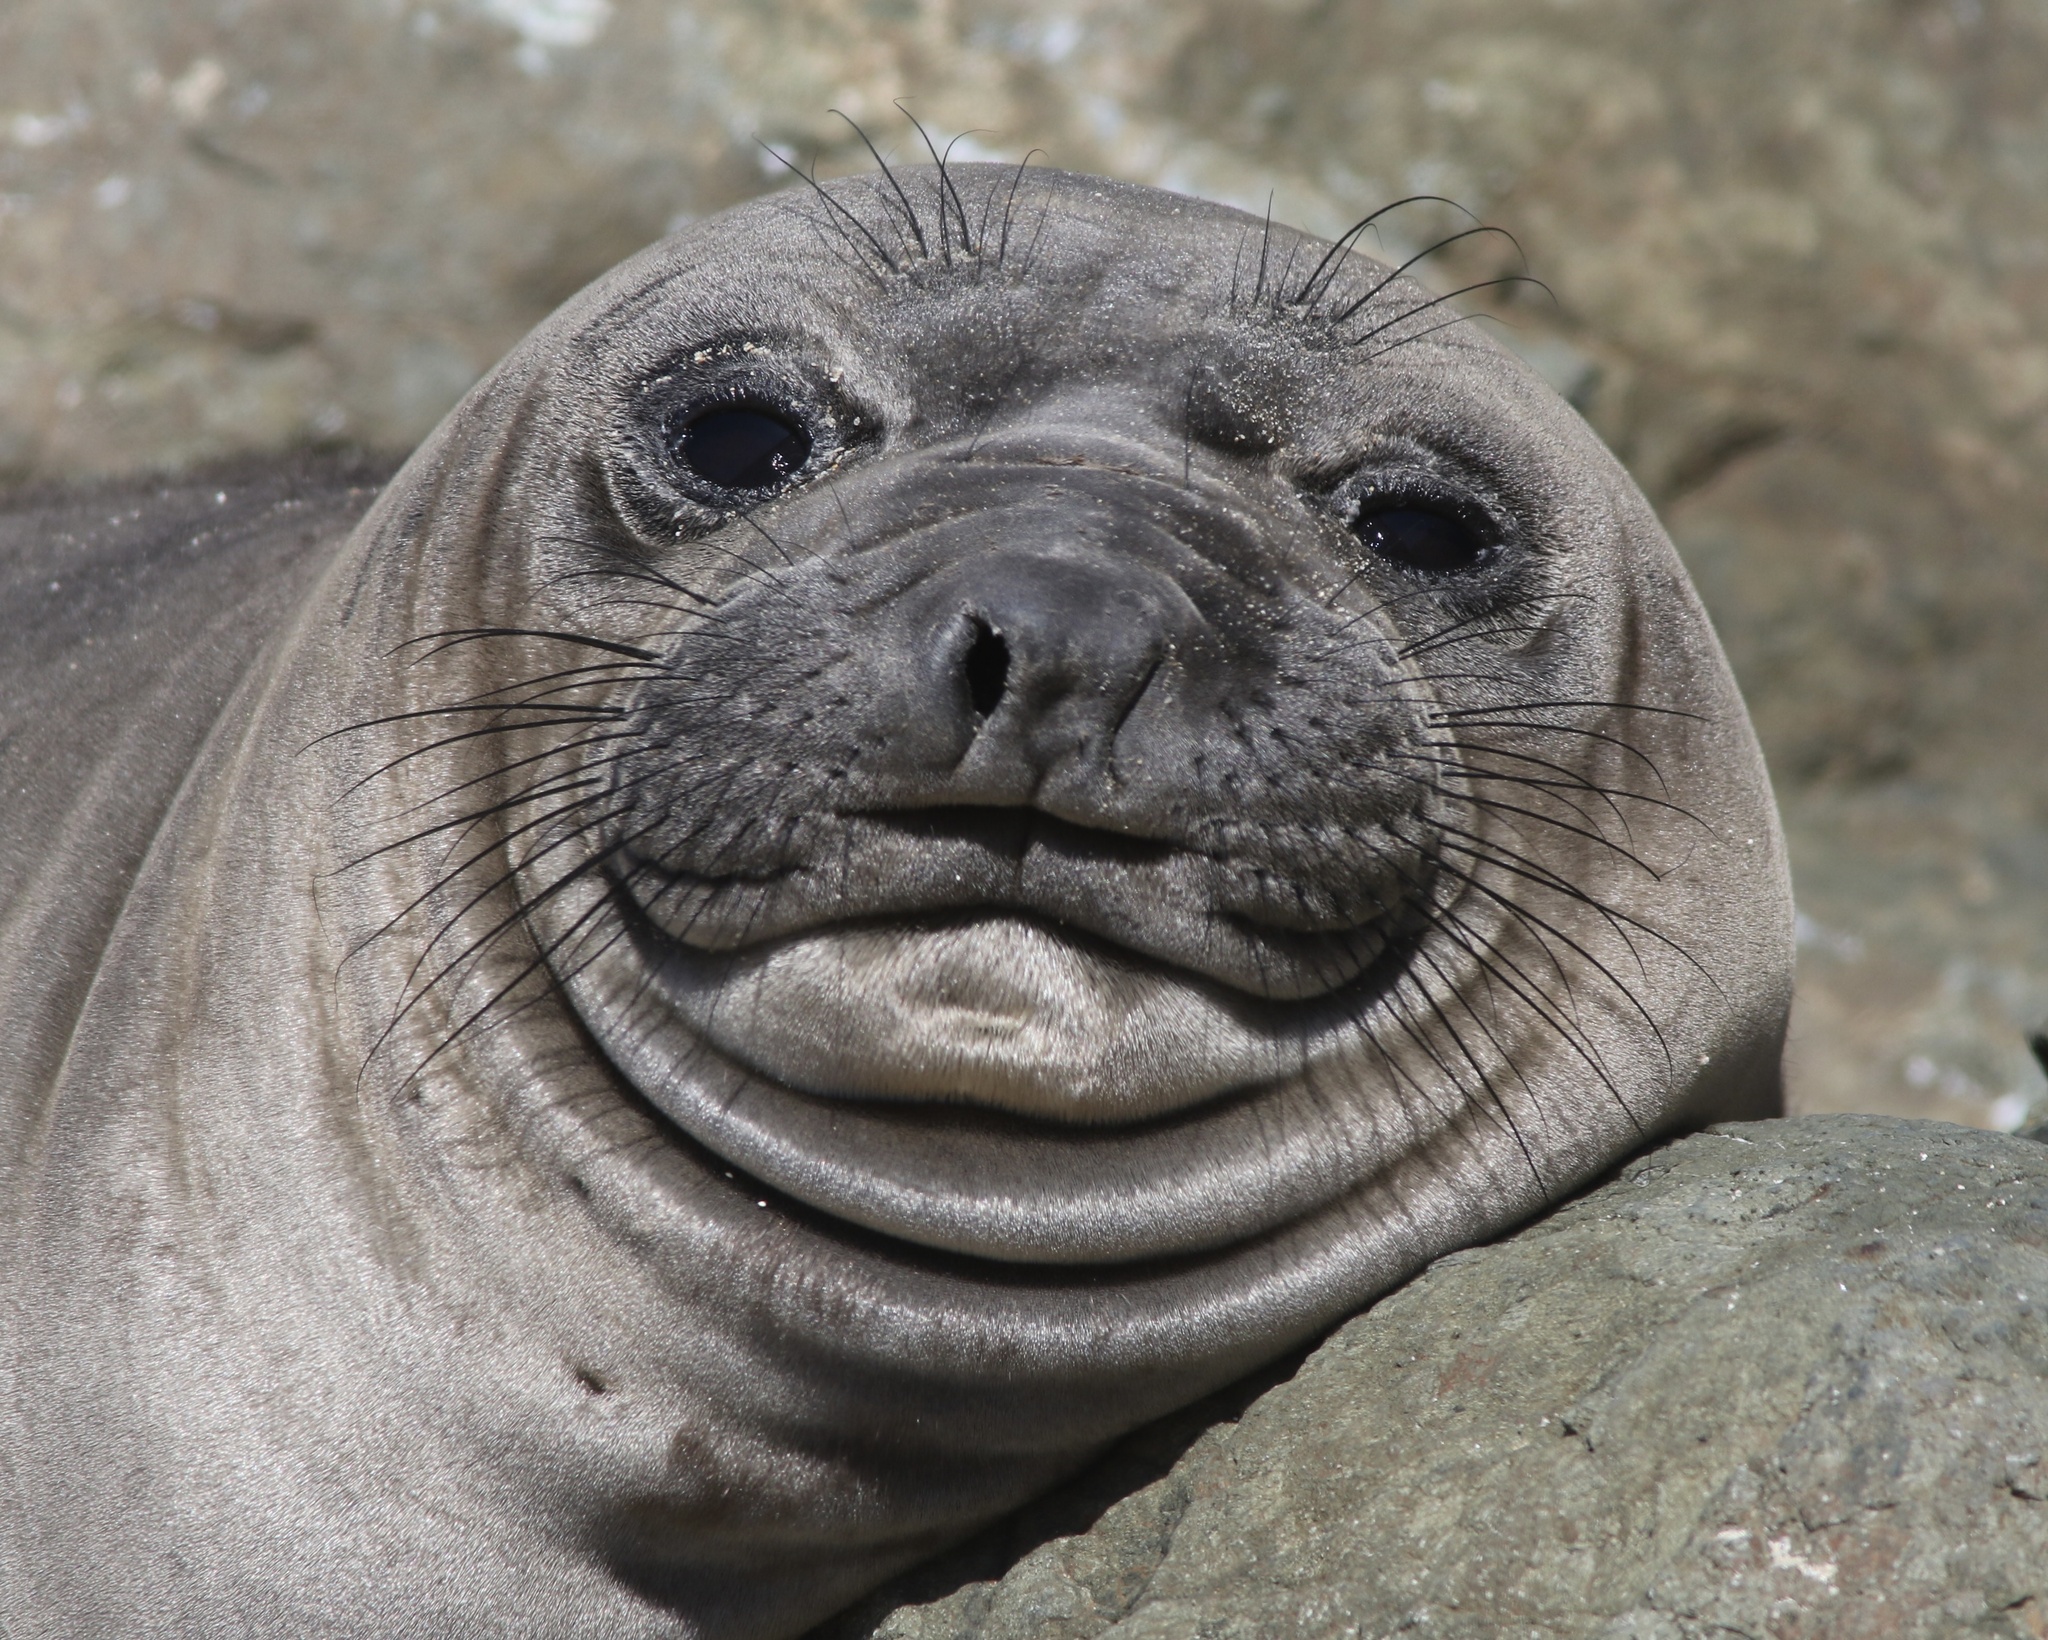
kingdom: Animalia
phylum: Chordata
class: Mammalia
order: Carnivora
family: Phocidae
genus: Mirounga
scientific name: Mirounga angustirostris
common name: Northern elephant seal
